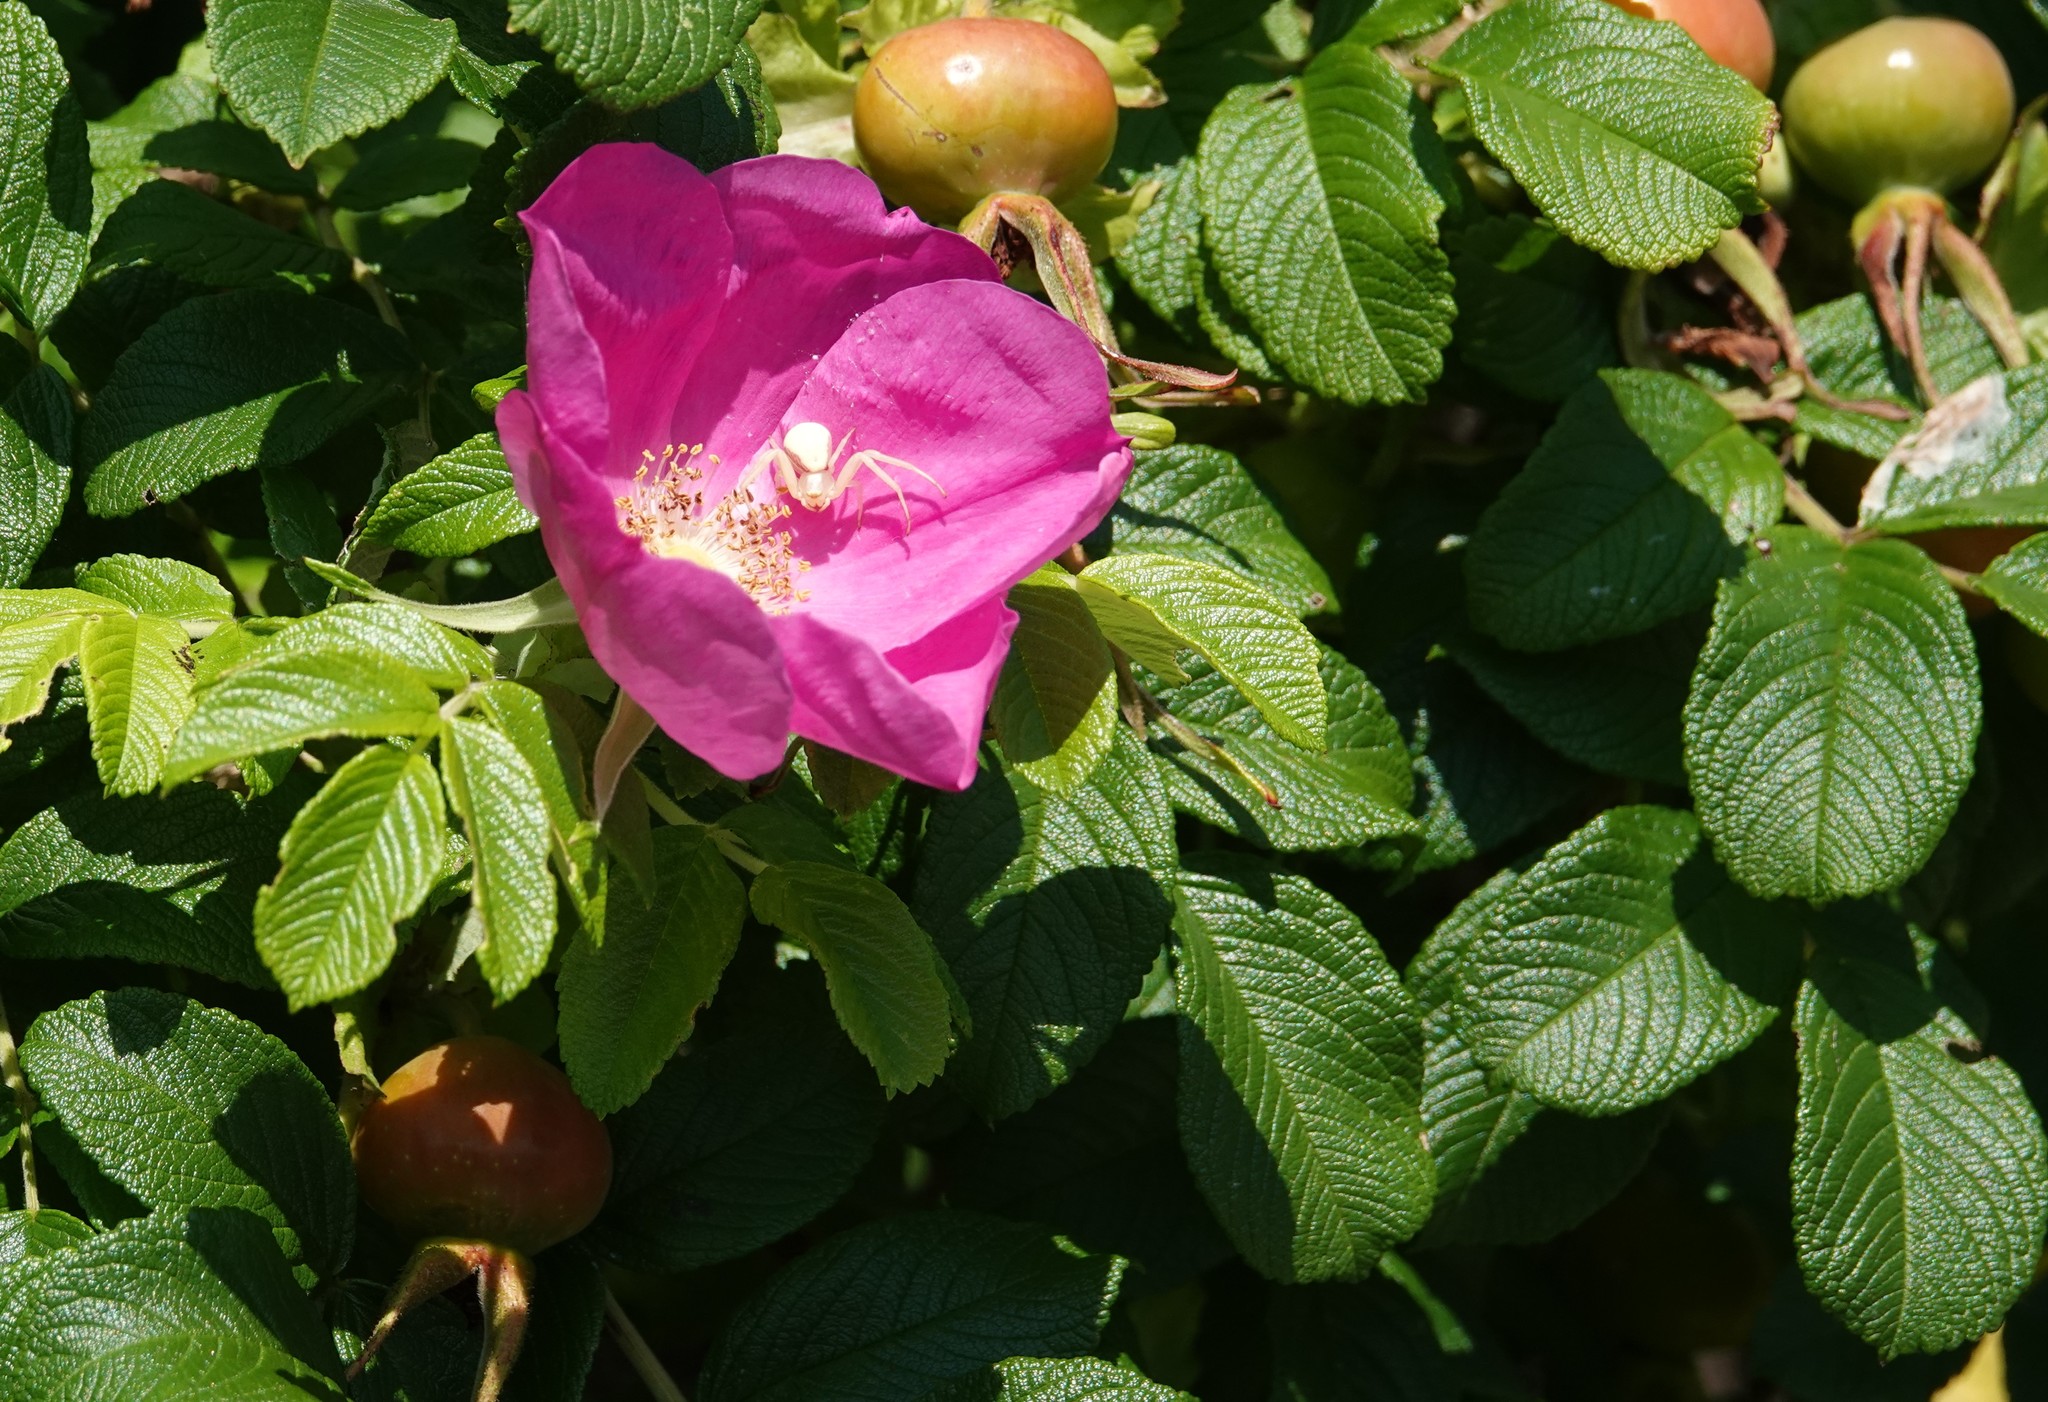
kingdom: Plantae
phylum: Tracheophyta
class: Magnoliopsida
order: Rosales
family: Rosaceae
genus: Rosa
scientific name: Rosa rugosa
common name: Japanese rose
